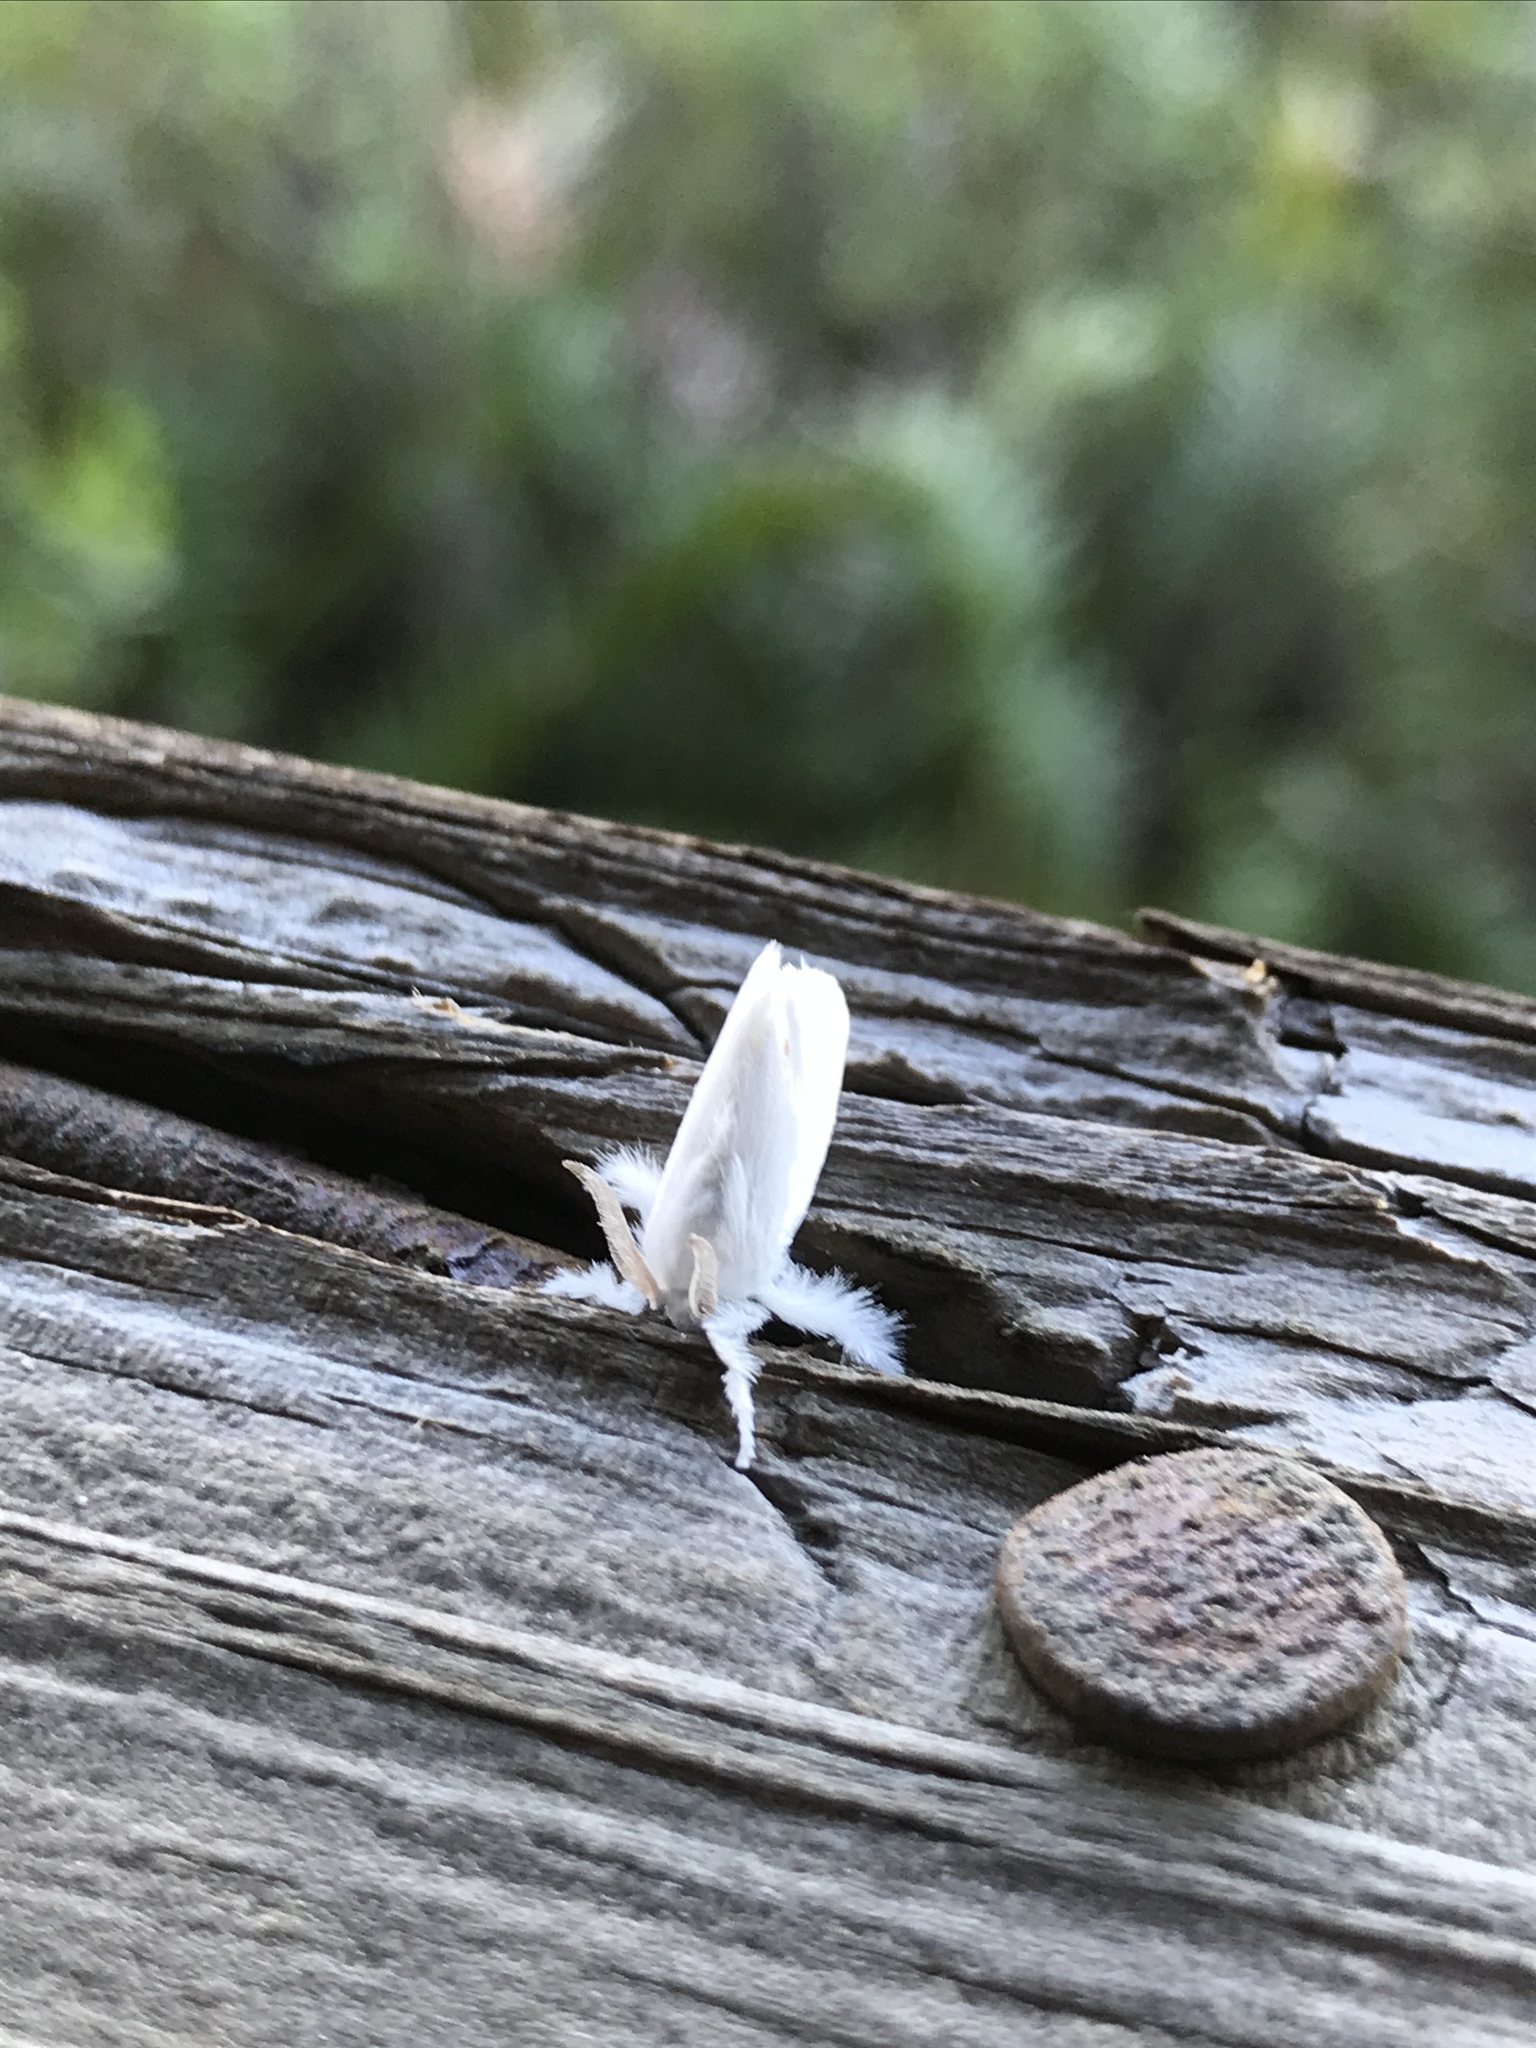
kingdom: Animalia
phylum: Arthropoda
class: Insecta
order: Lepidoptera
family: Limacodidae
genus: Alarodia
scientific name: Alarodia slossoniae
